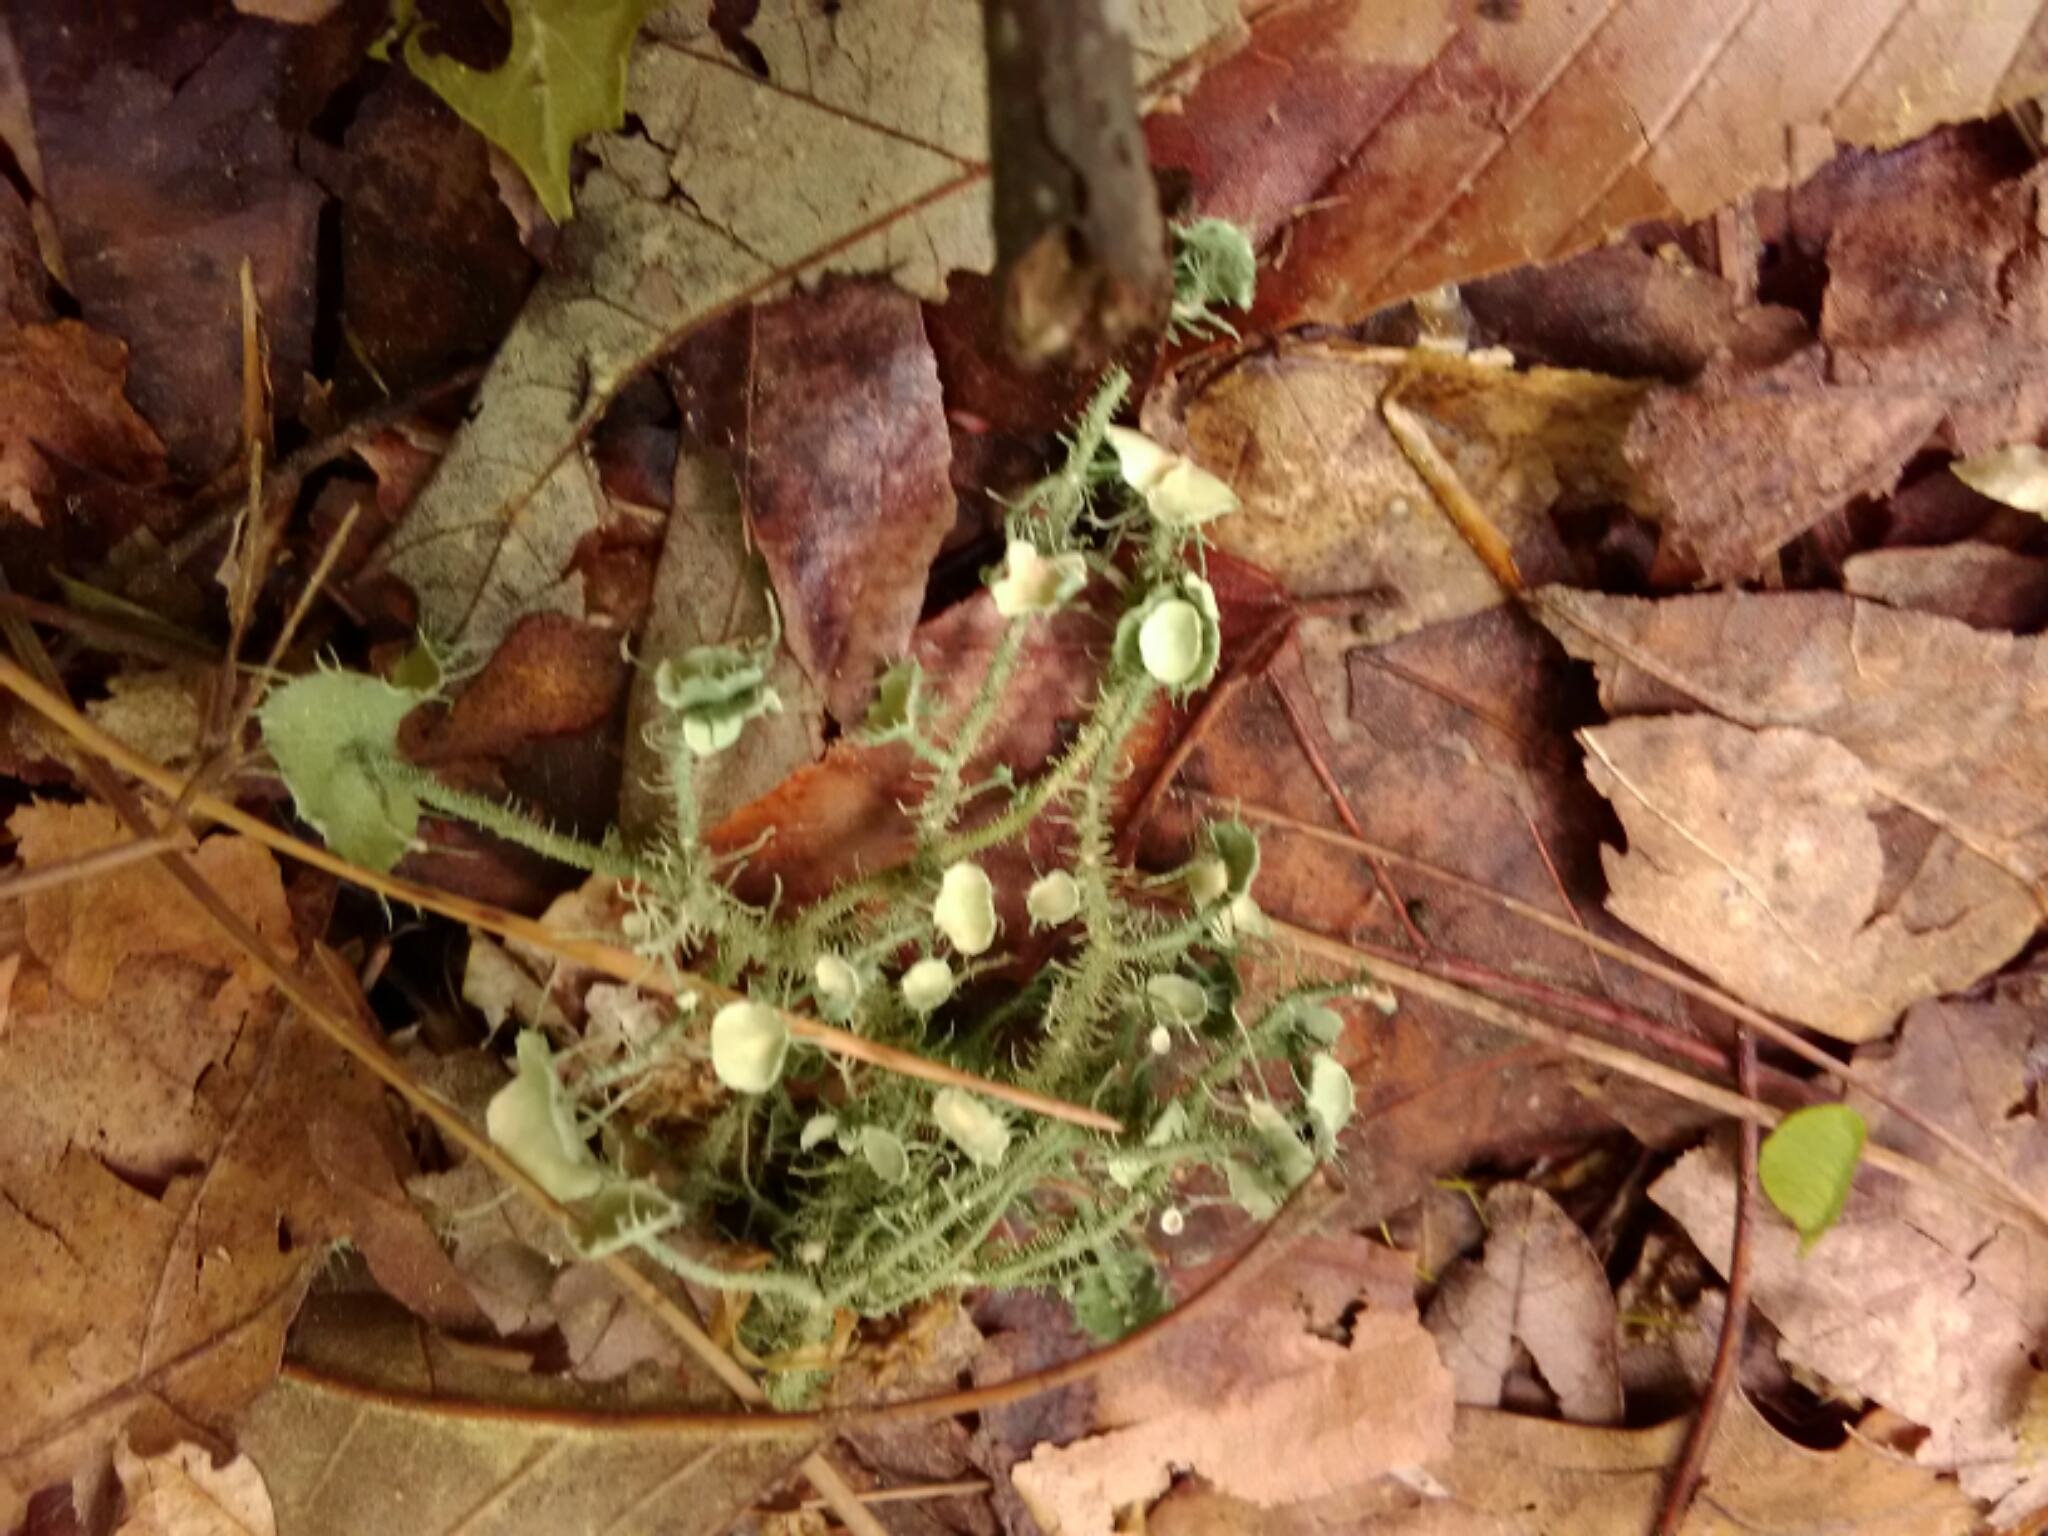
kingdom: Fungi
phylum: Ascomycota
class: Lecanoromycetes
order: Lecanorales
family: Parmeliaceae
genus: Usnea
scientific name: Usnea strigosa
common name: Bushy beard lichen
